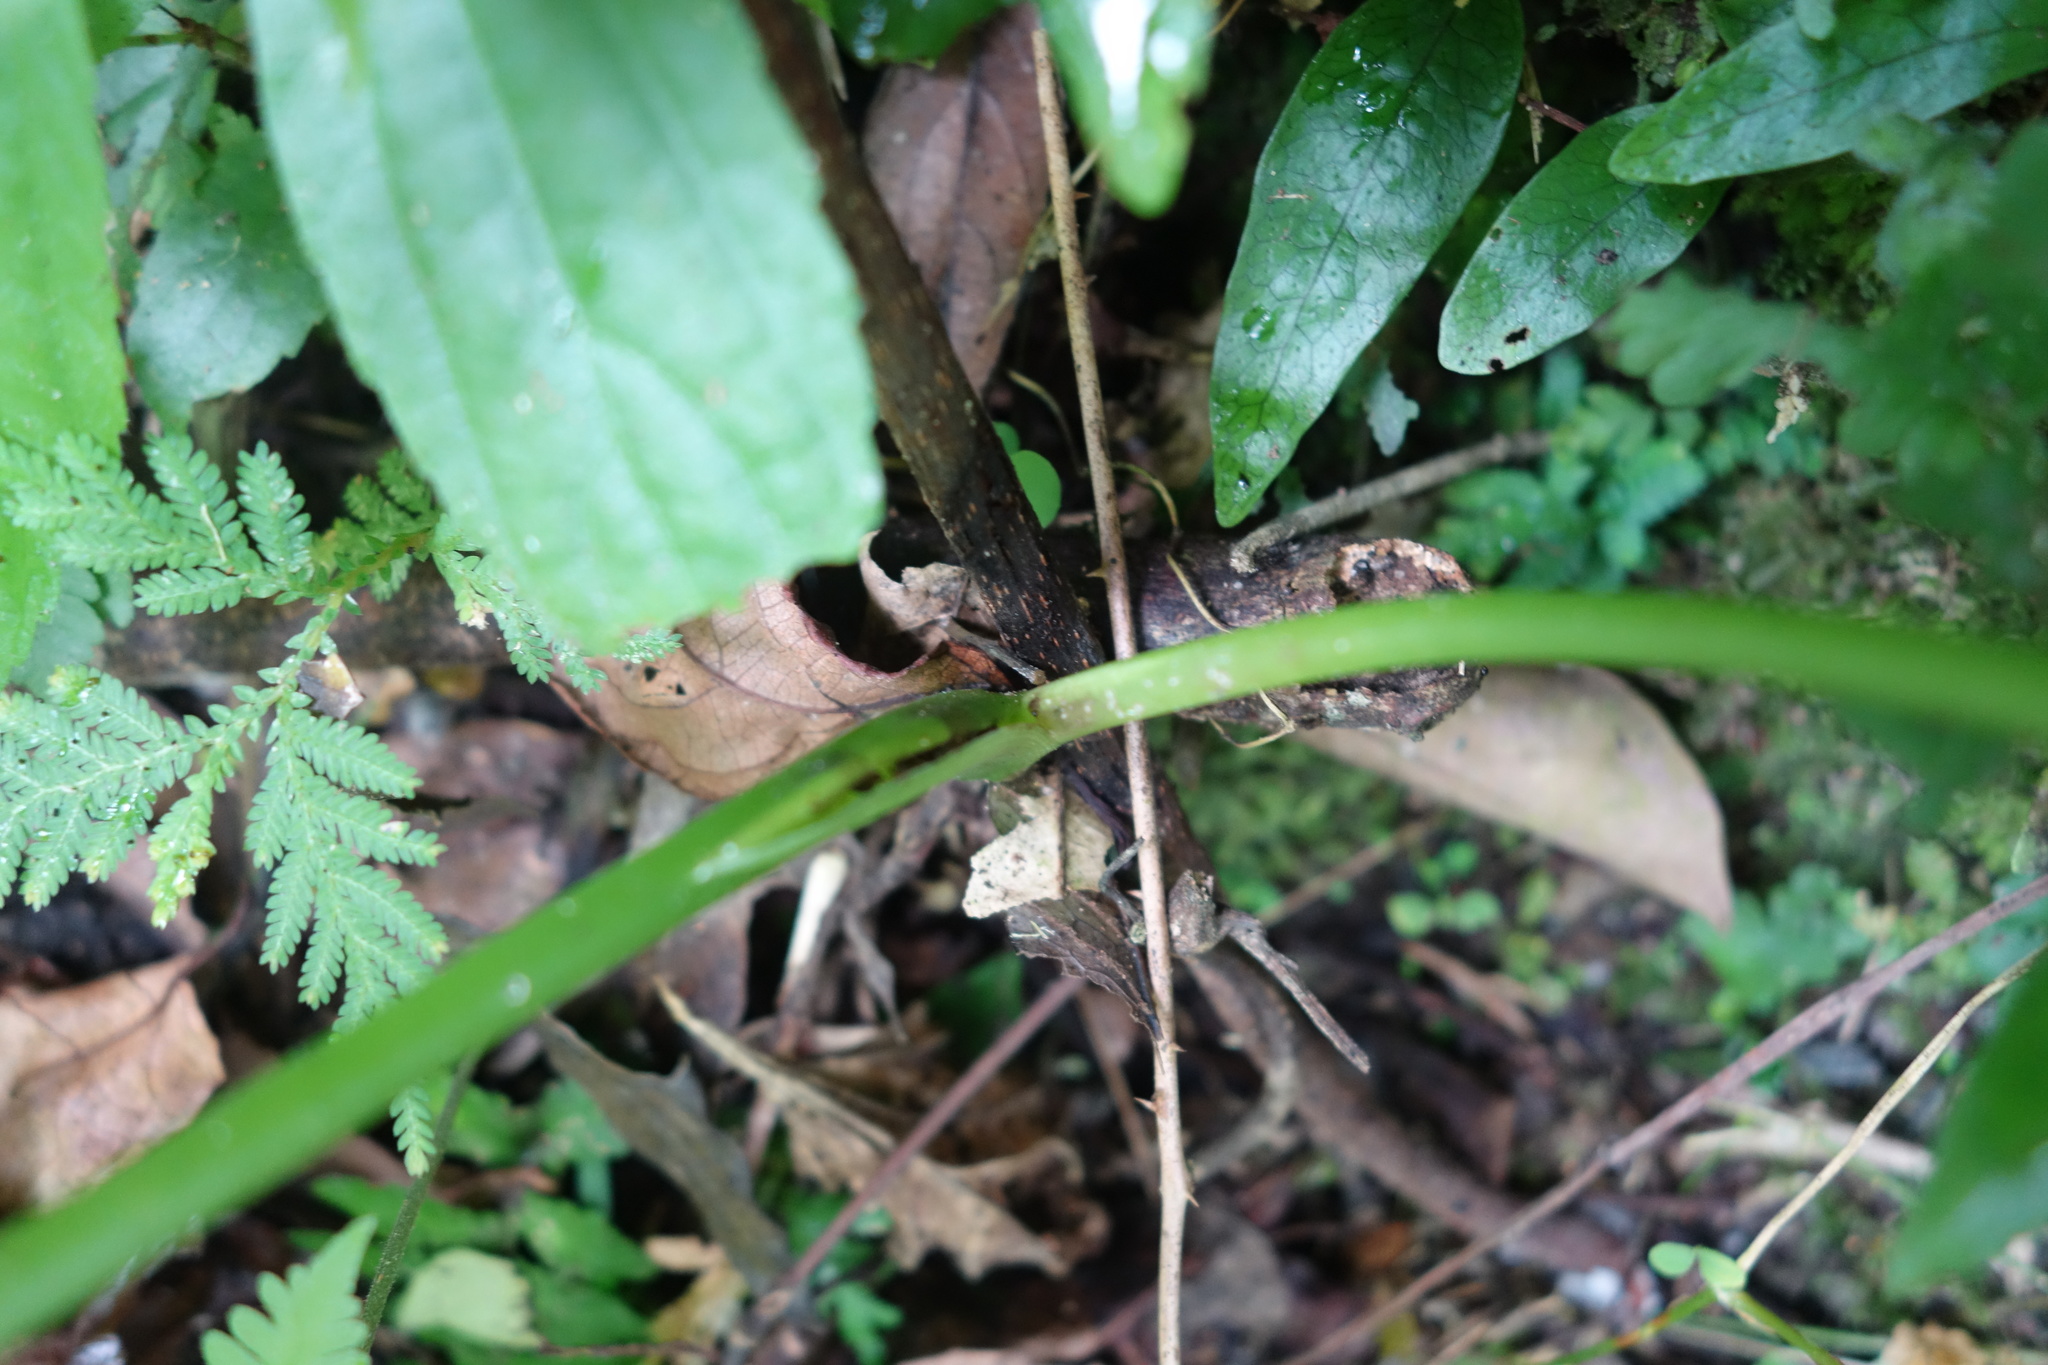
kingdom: Plantae
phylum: Tracheophyta
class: Liliopsida
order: Alismatales
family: Araceae
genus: Colocasia
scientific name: Colocasia esculenta
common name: Taro
